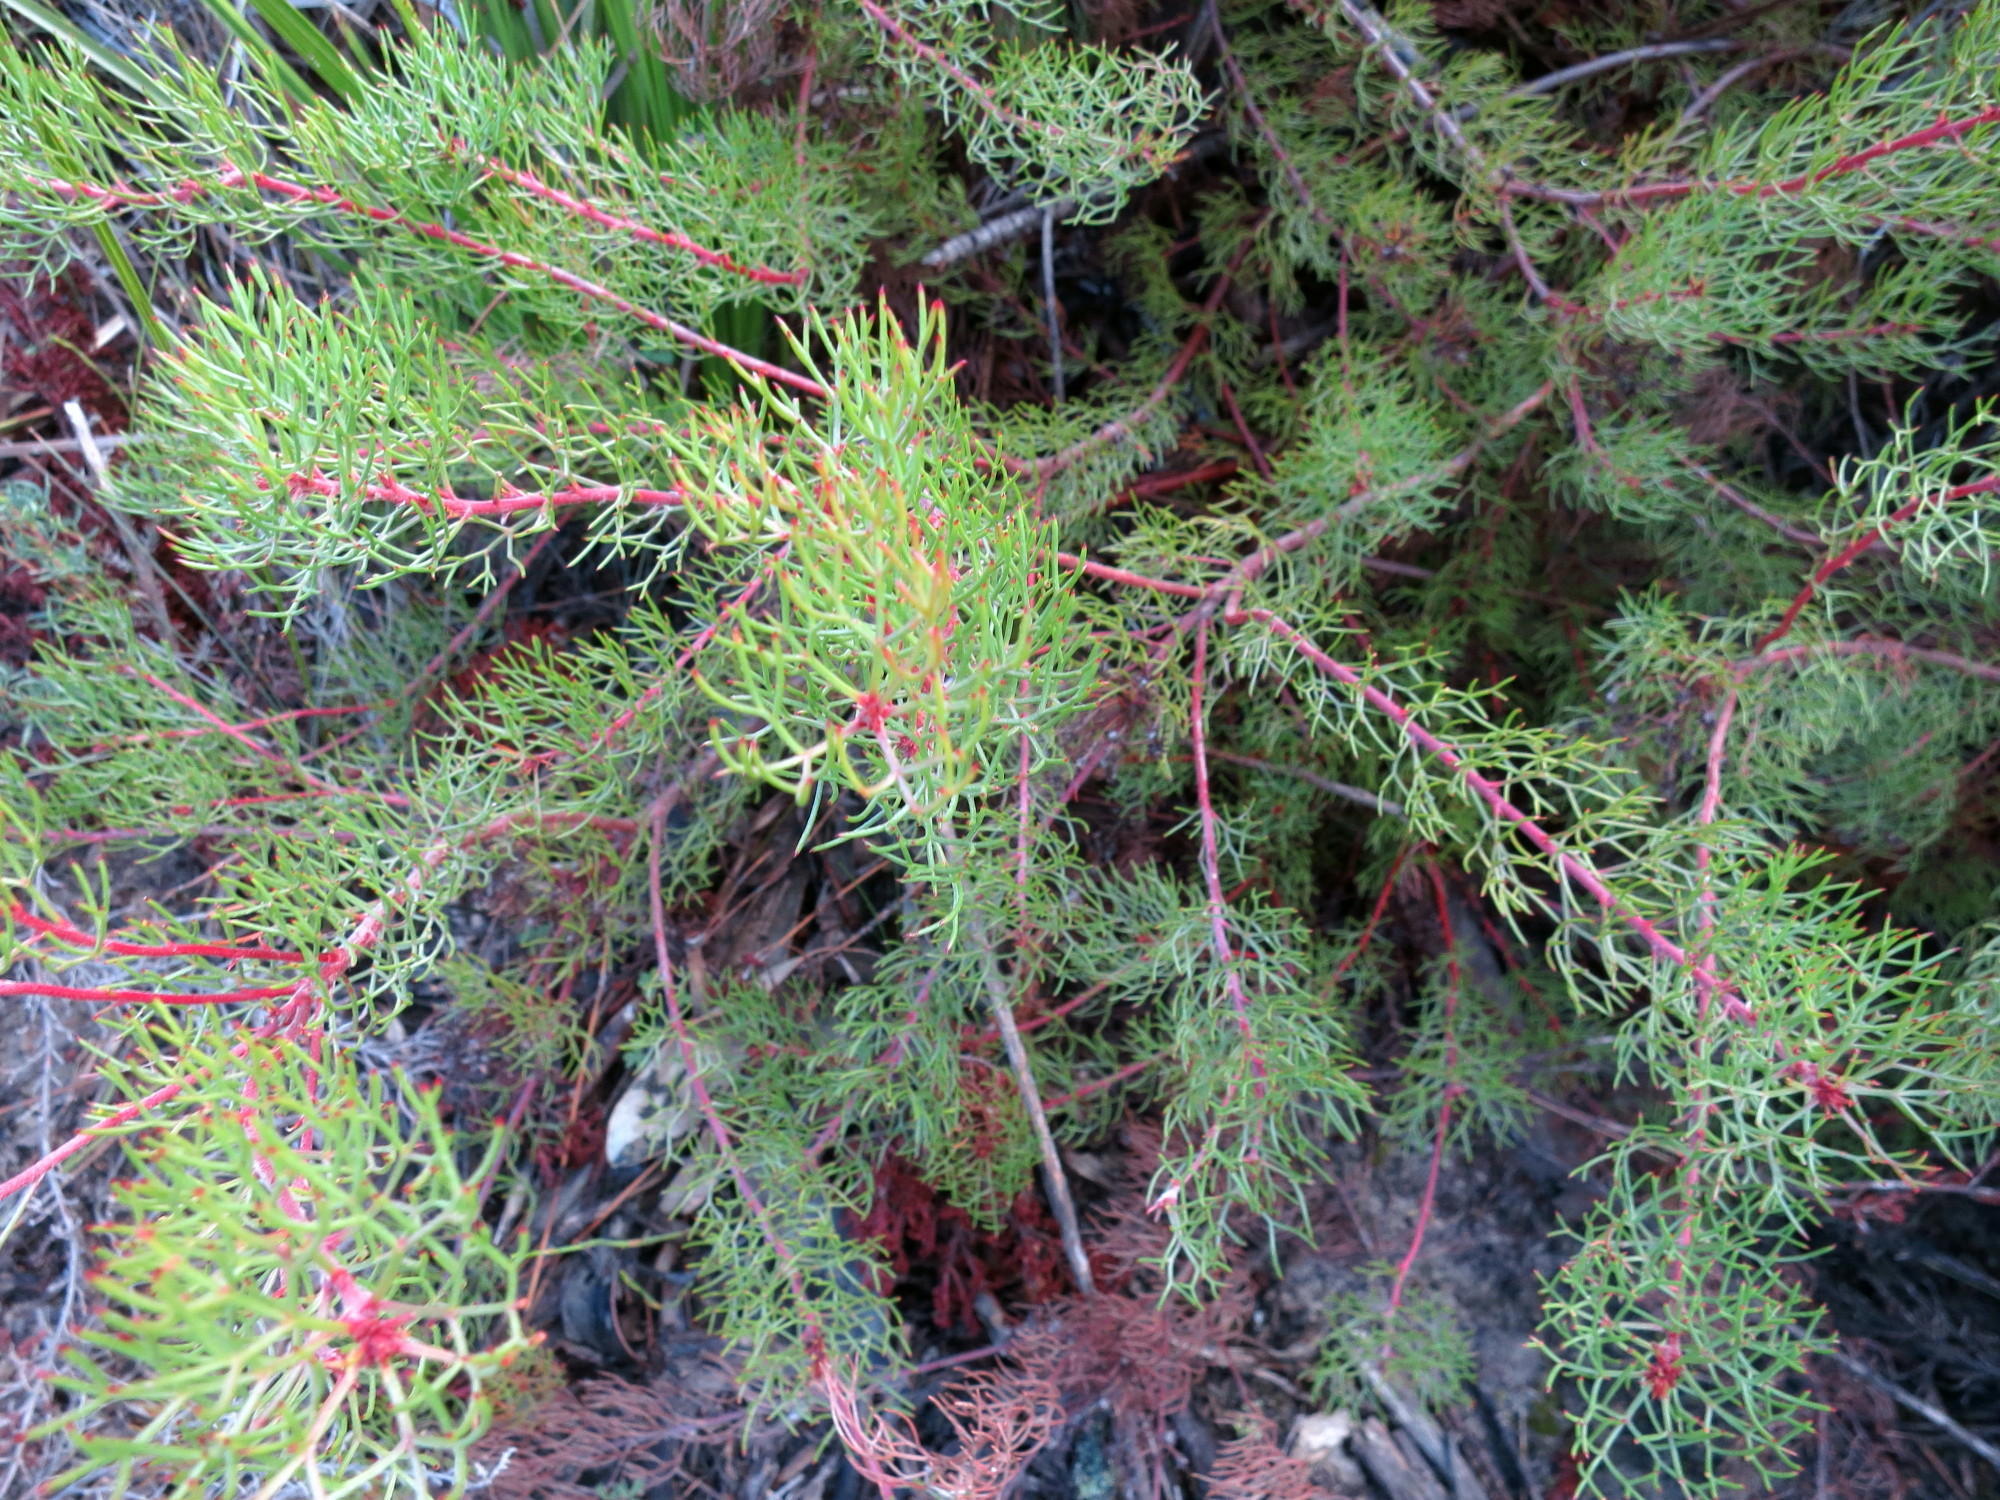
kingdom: Plantae
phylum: Tracheophyta
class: Magnoliopsida
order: Proteales
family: Proteaceae
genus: Serruria
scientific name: Serruria fasciflora
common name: Common pin spiderhead
